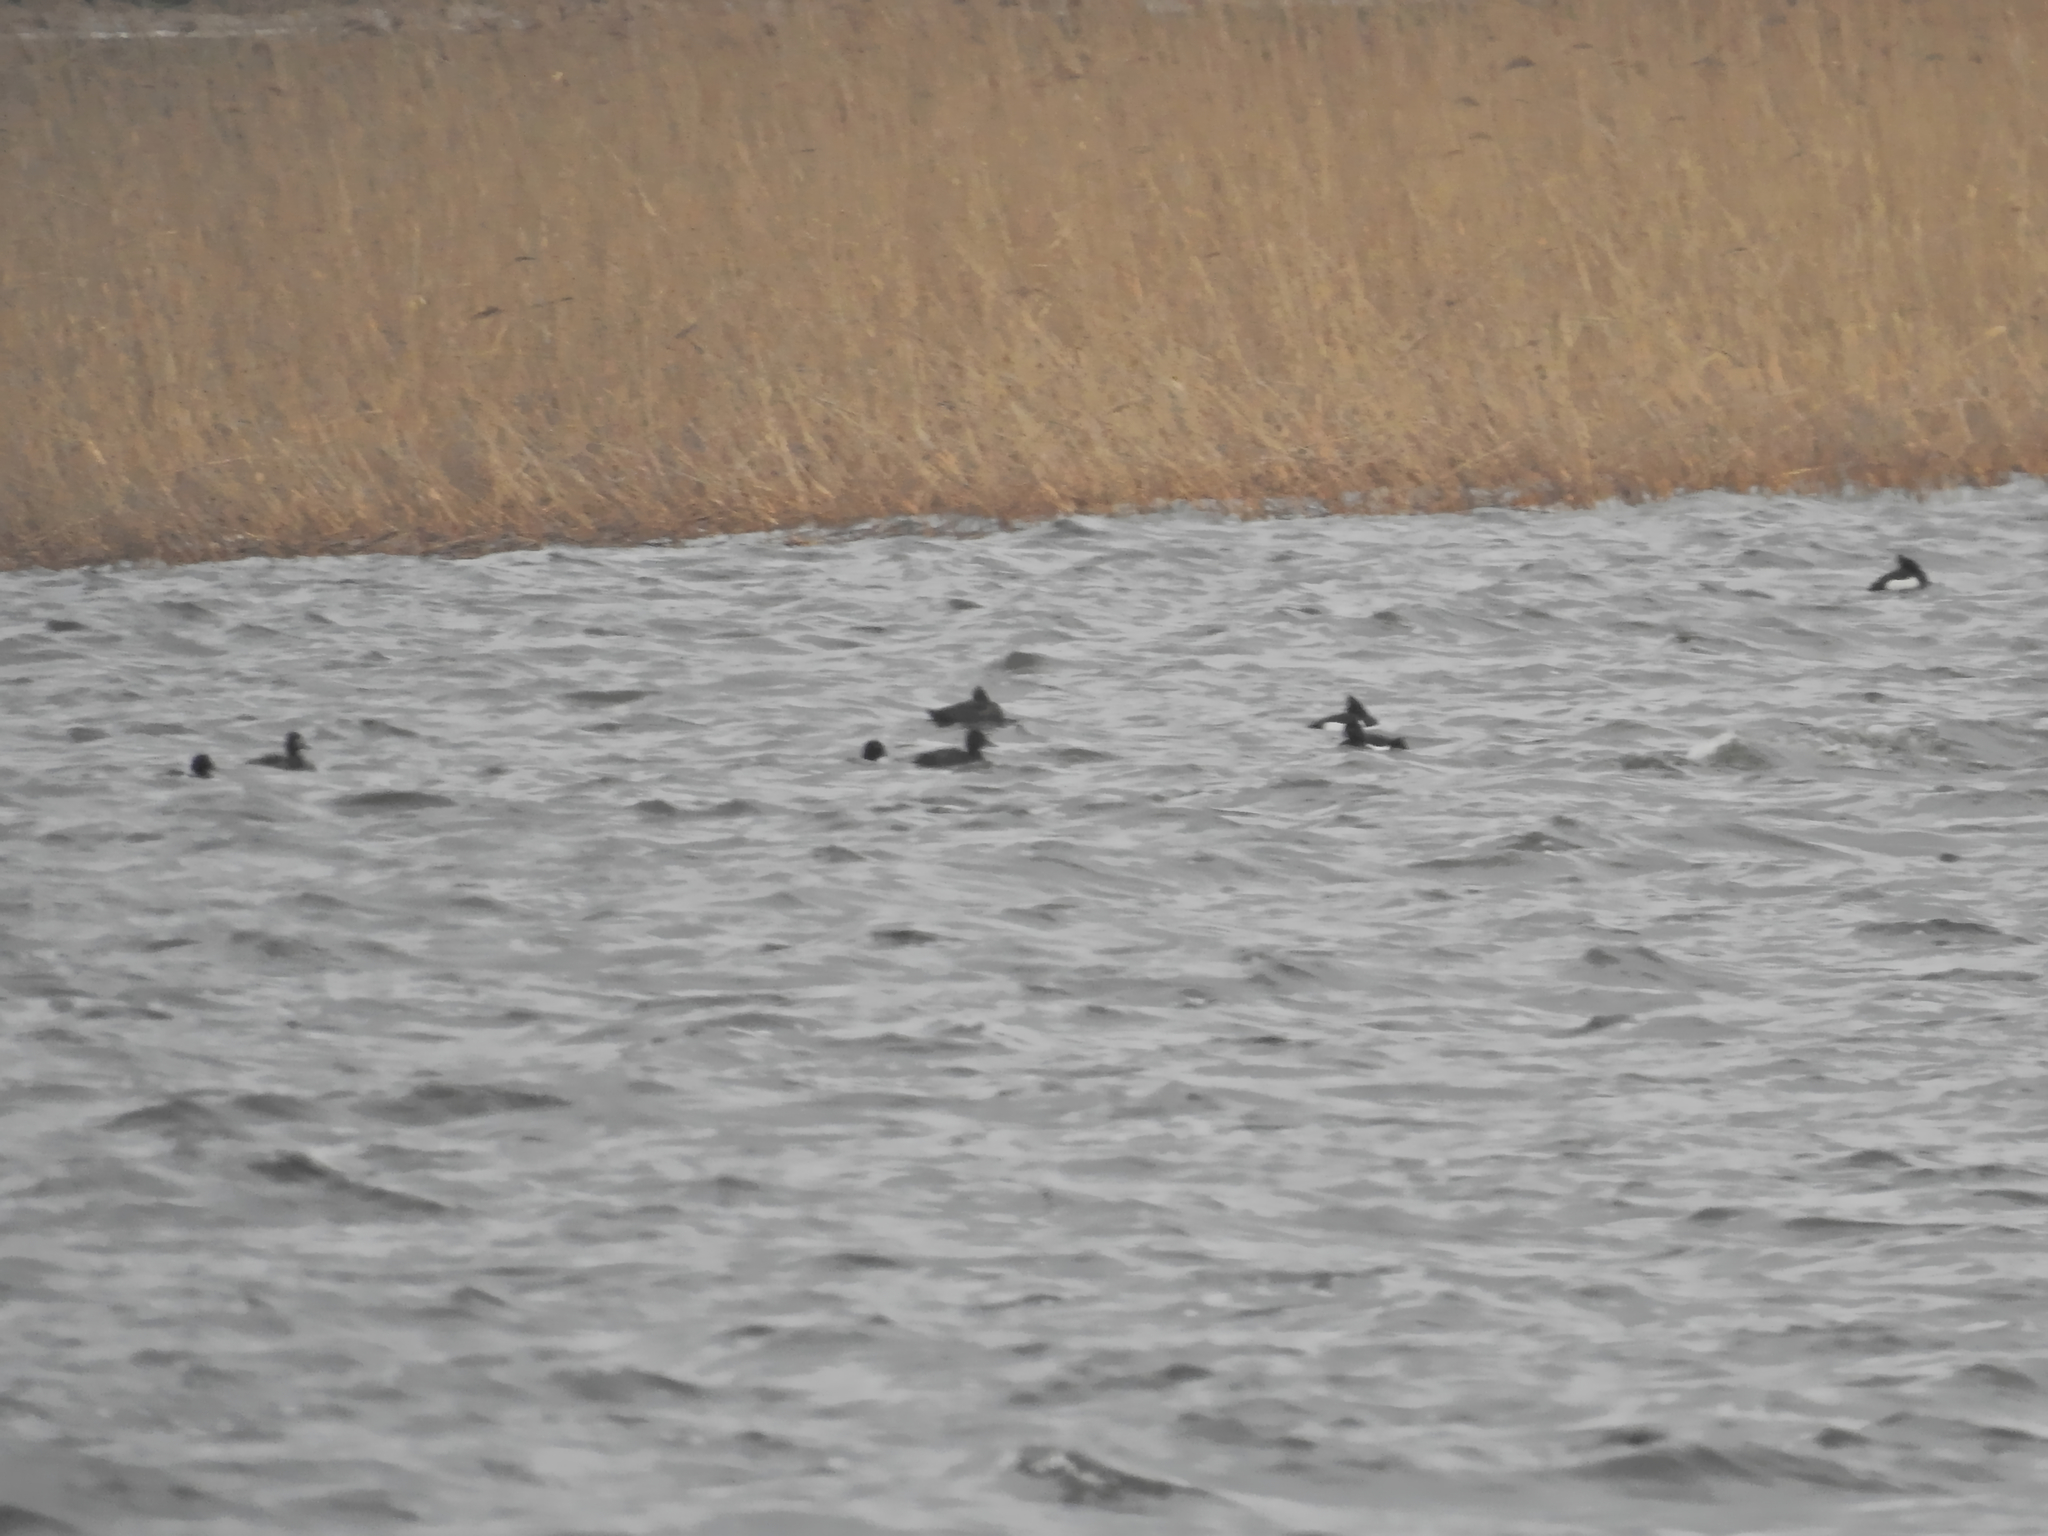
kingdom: Animalia
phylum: Chordata
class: Aves
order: Anseriformes
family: Anatidae
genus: Aythya
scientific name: Aythya fuligula
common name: Tufted duck
